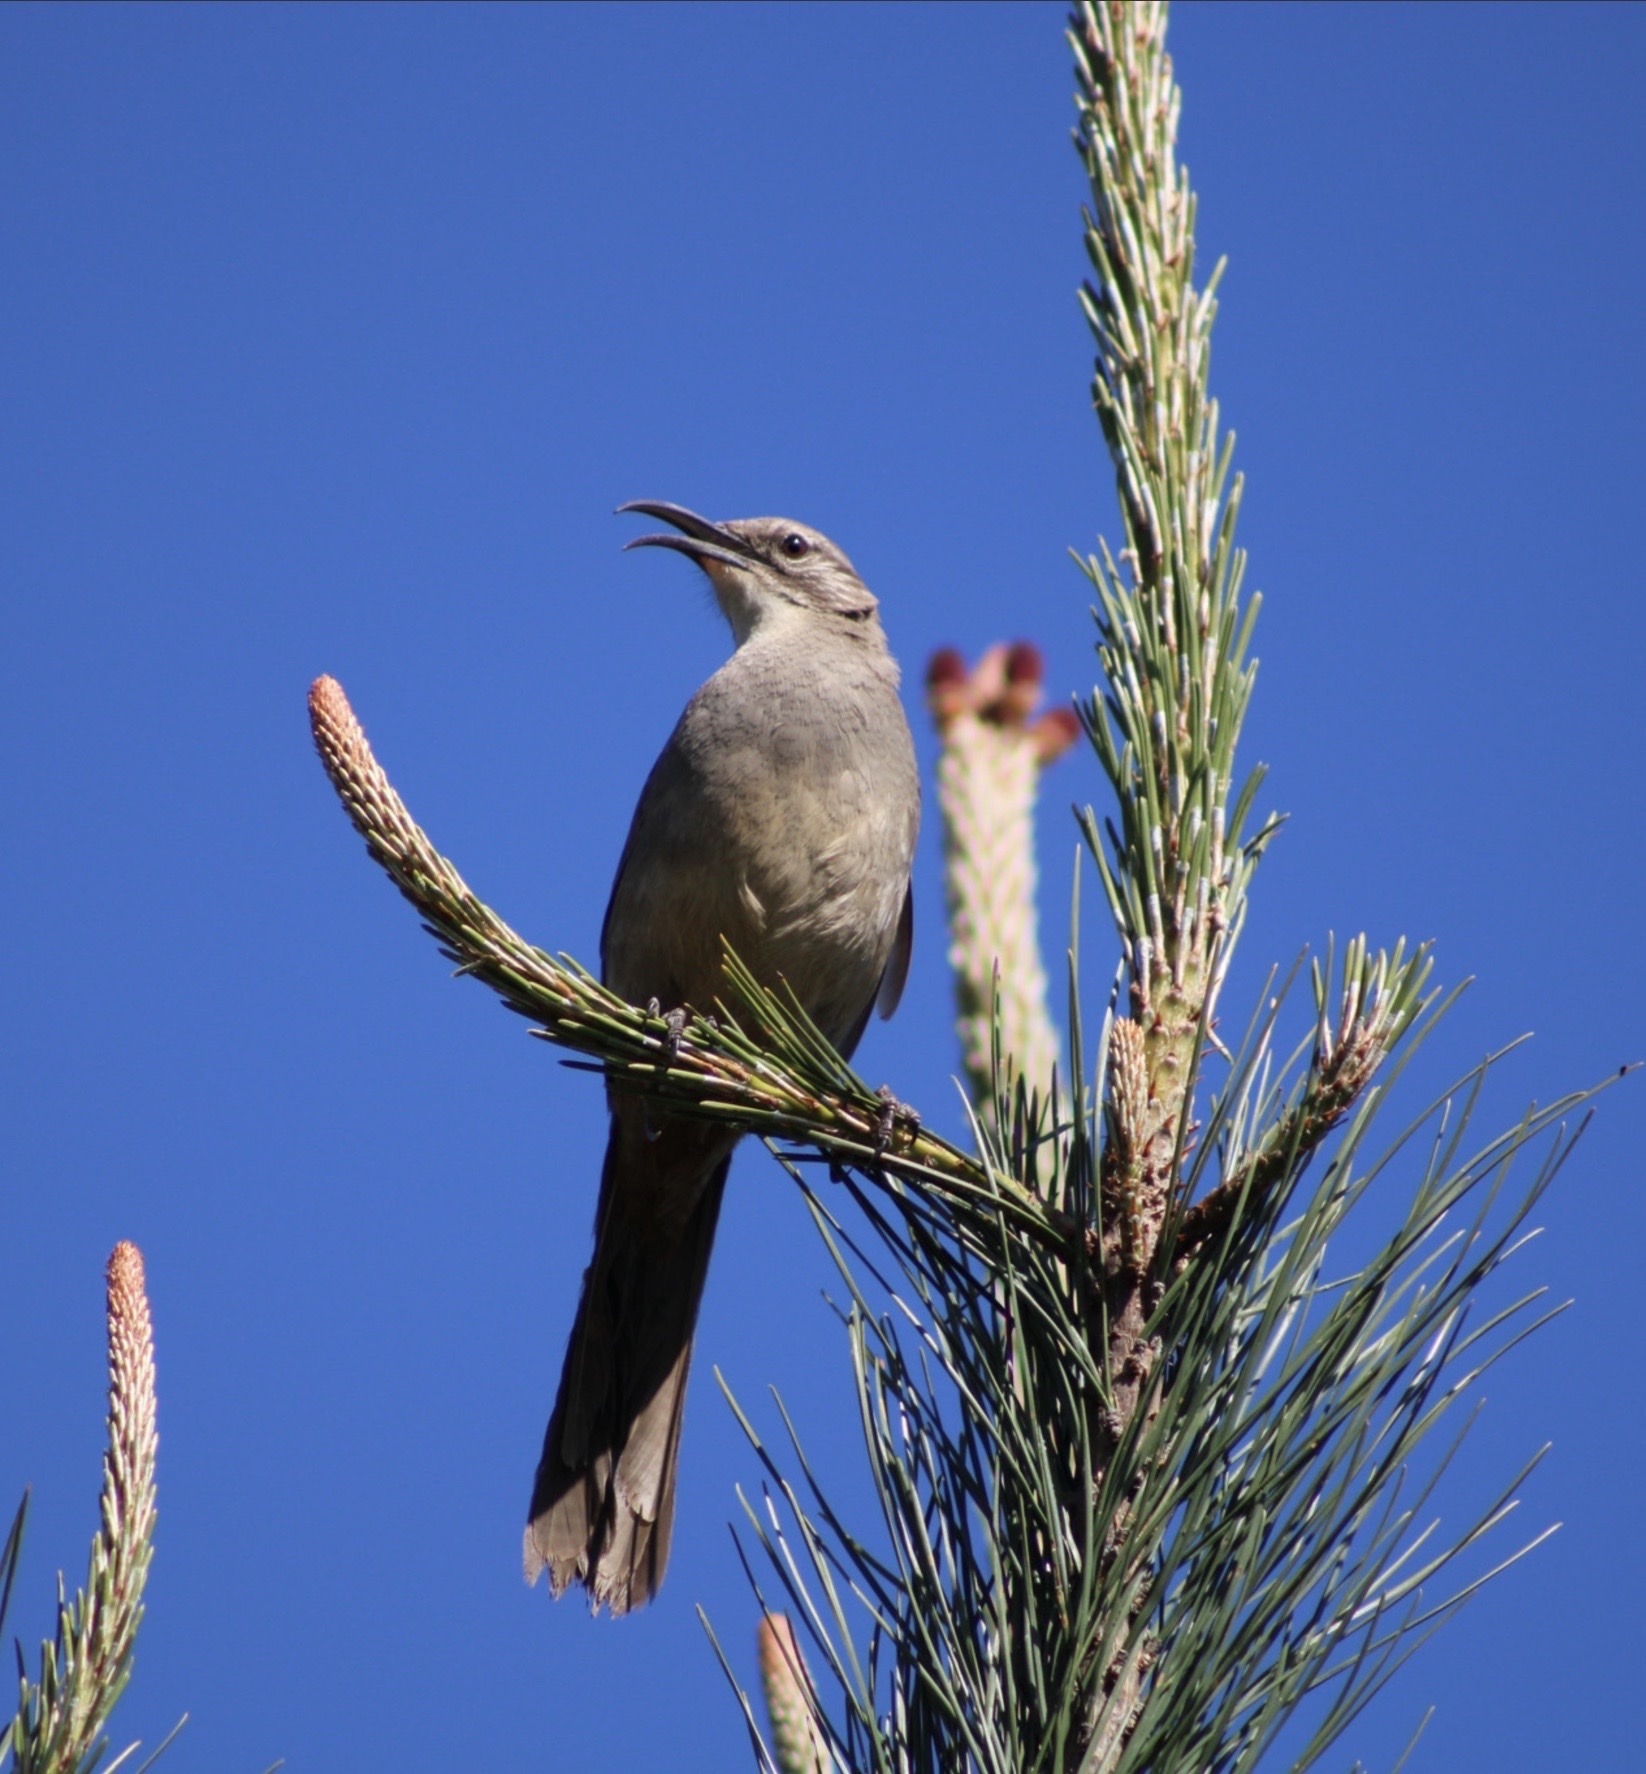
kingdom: Animalia
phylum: Chordata
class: Aves
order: Passeriformes
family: Mimidae
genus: Toxostoma
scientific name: Toxostoma redivivum
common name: California thrasher
